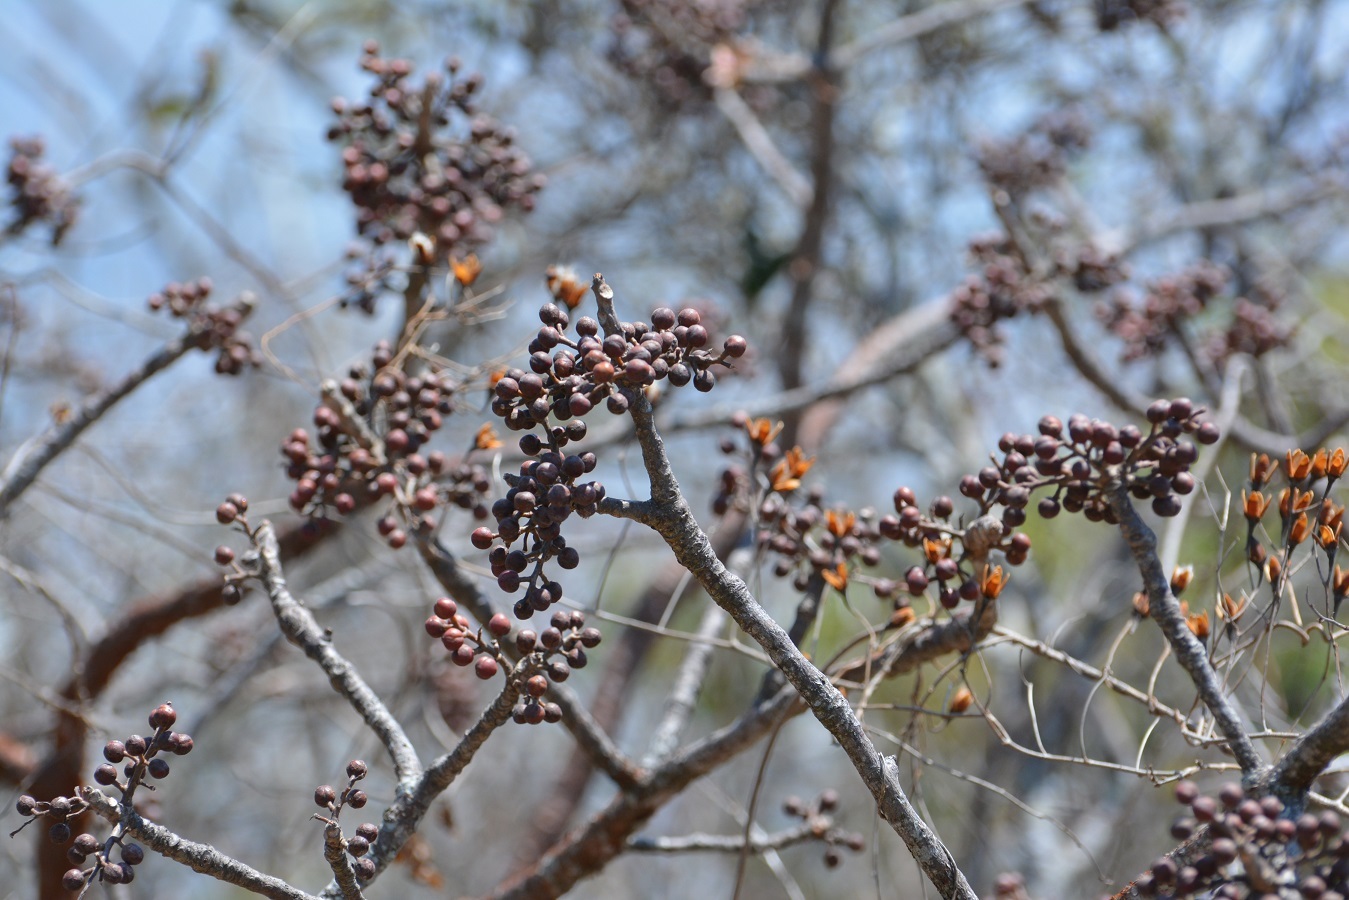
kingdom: Plantae
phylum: Tracheophyta
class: Magnoliopsida
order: Sapindales
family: Burseraceae
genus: Bursera
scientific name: Bursera simaruba
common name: Turpentine tree
